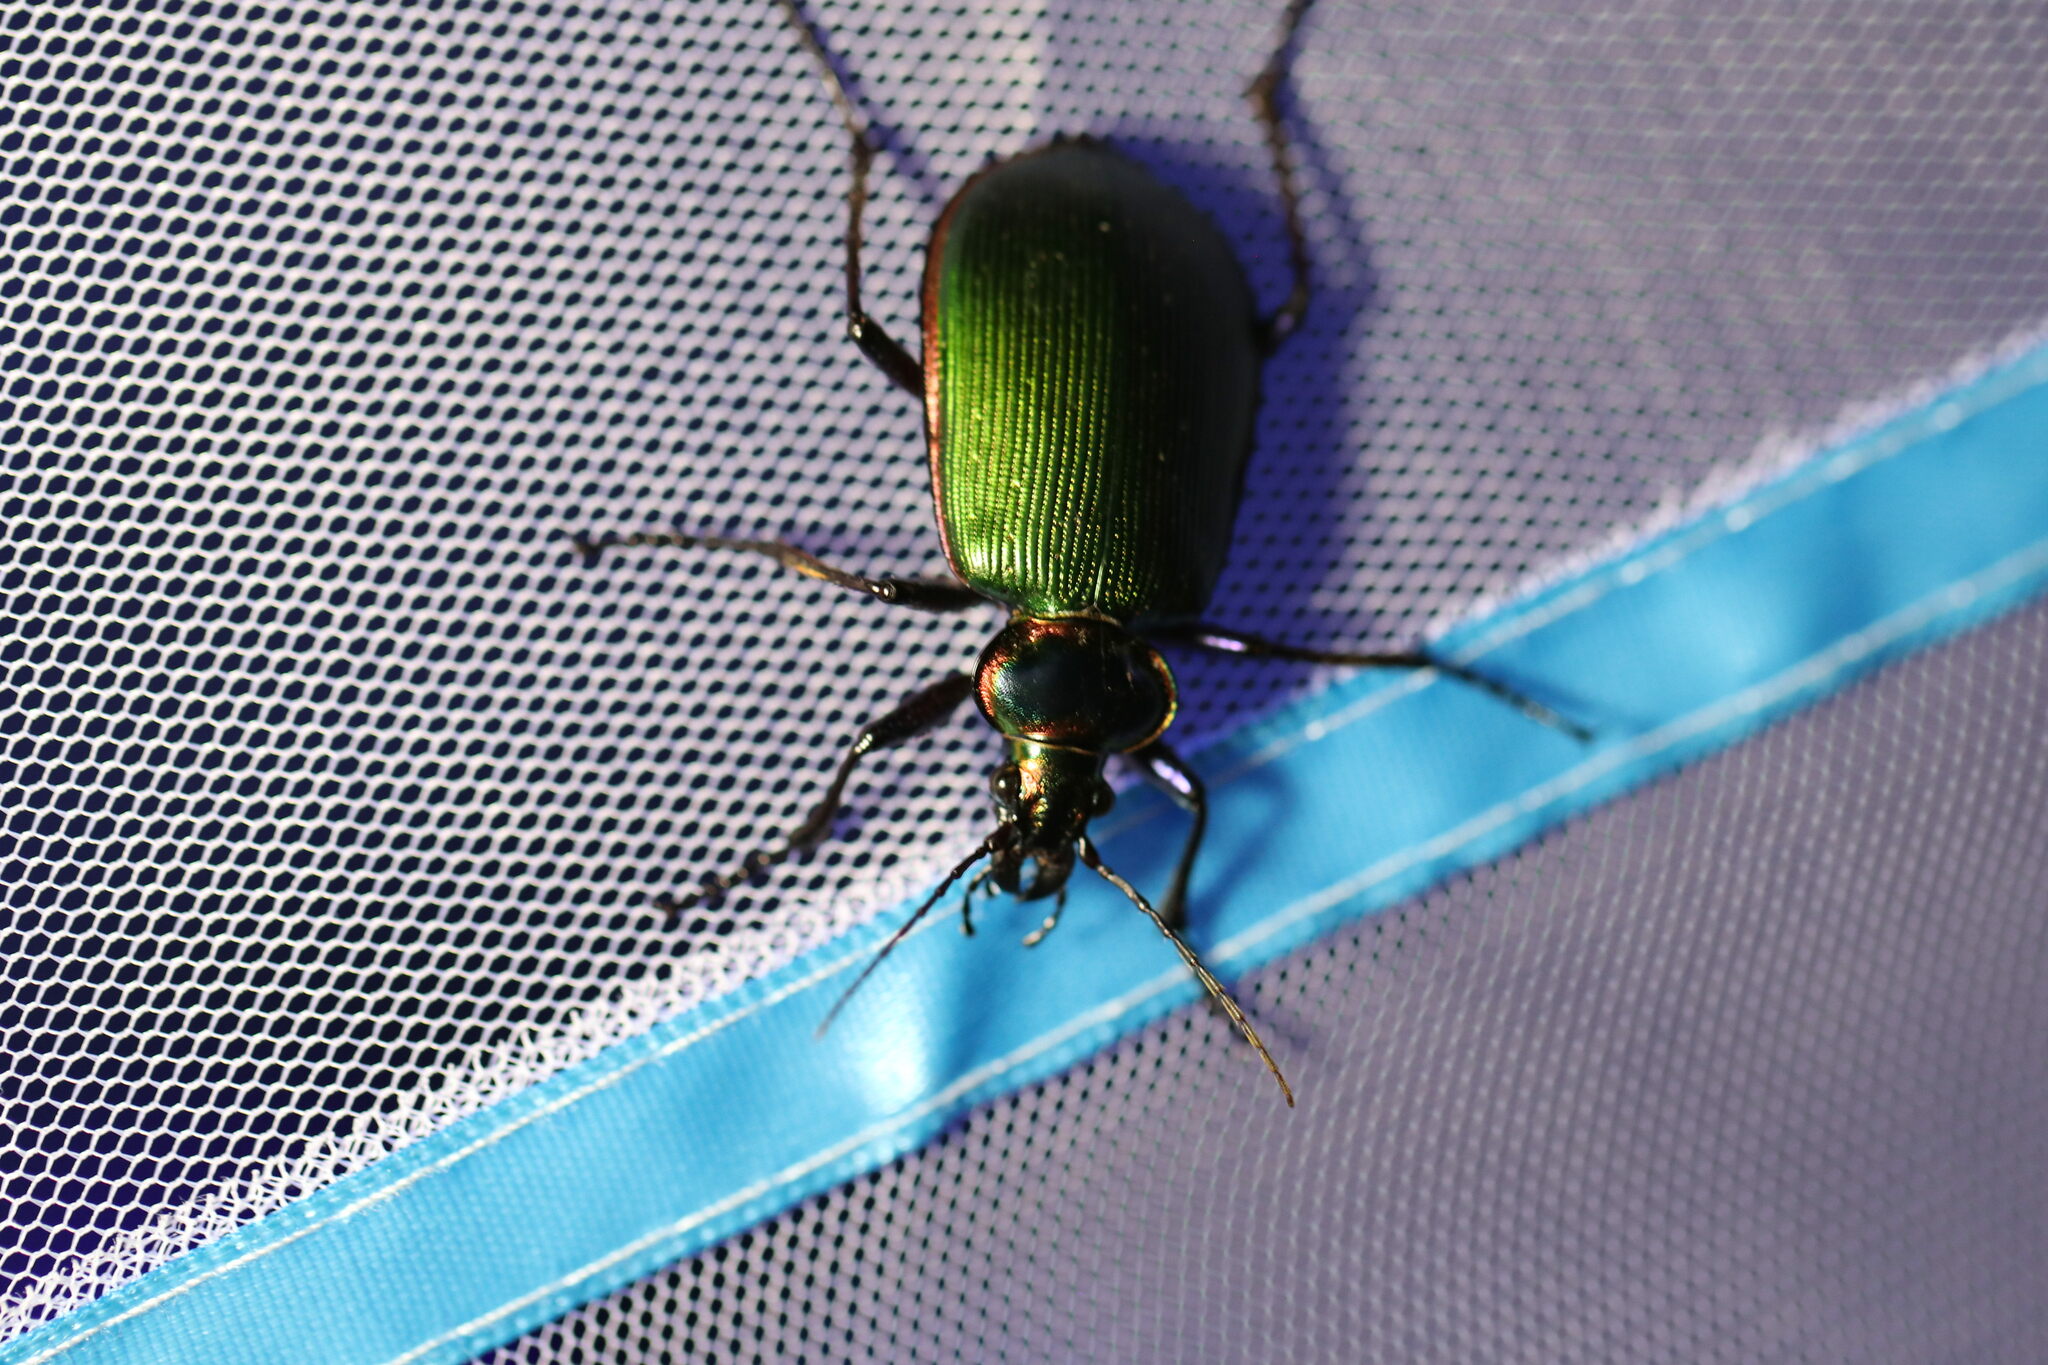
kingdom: Animalia
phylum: Arthropoda
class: Insecta
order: Coleoptera
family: Carabidae
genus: Calosoma
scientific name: Calosoma scrutator
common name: Fiery searcher beetle
